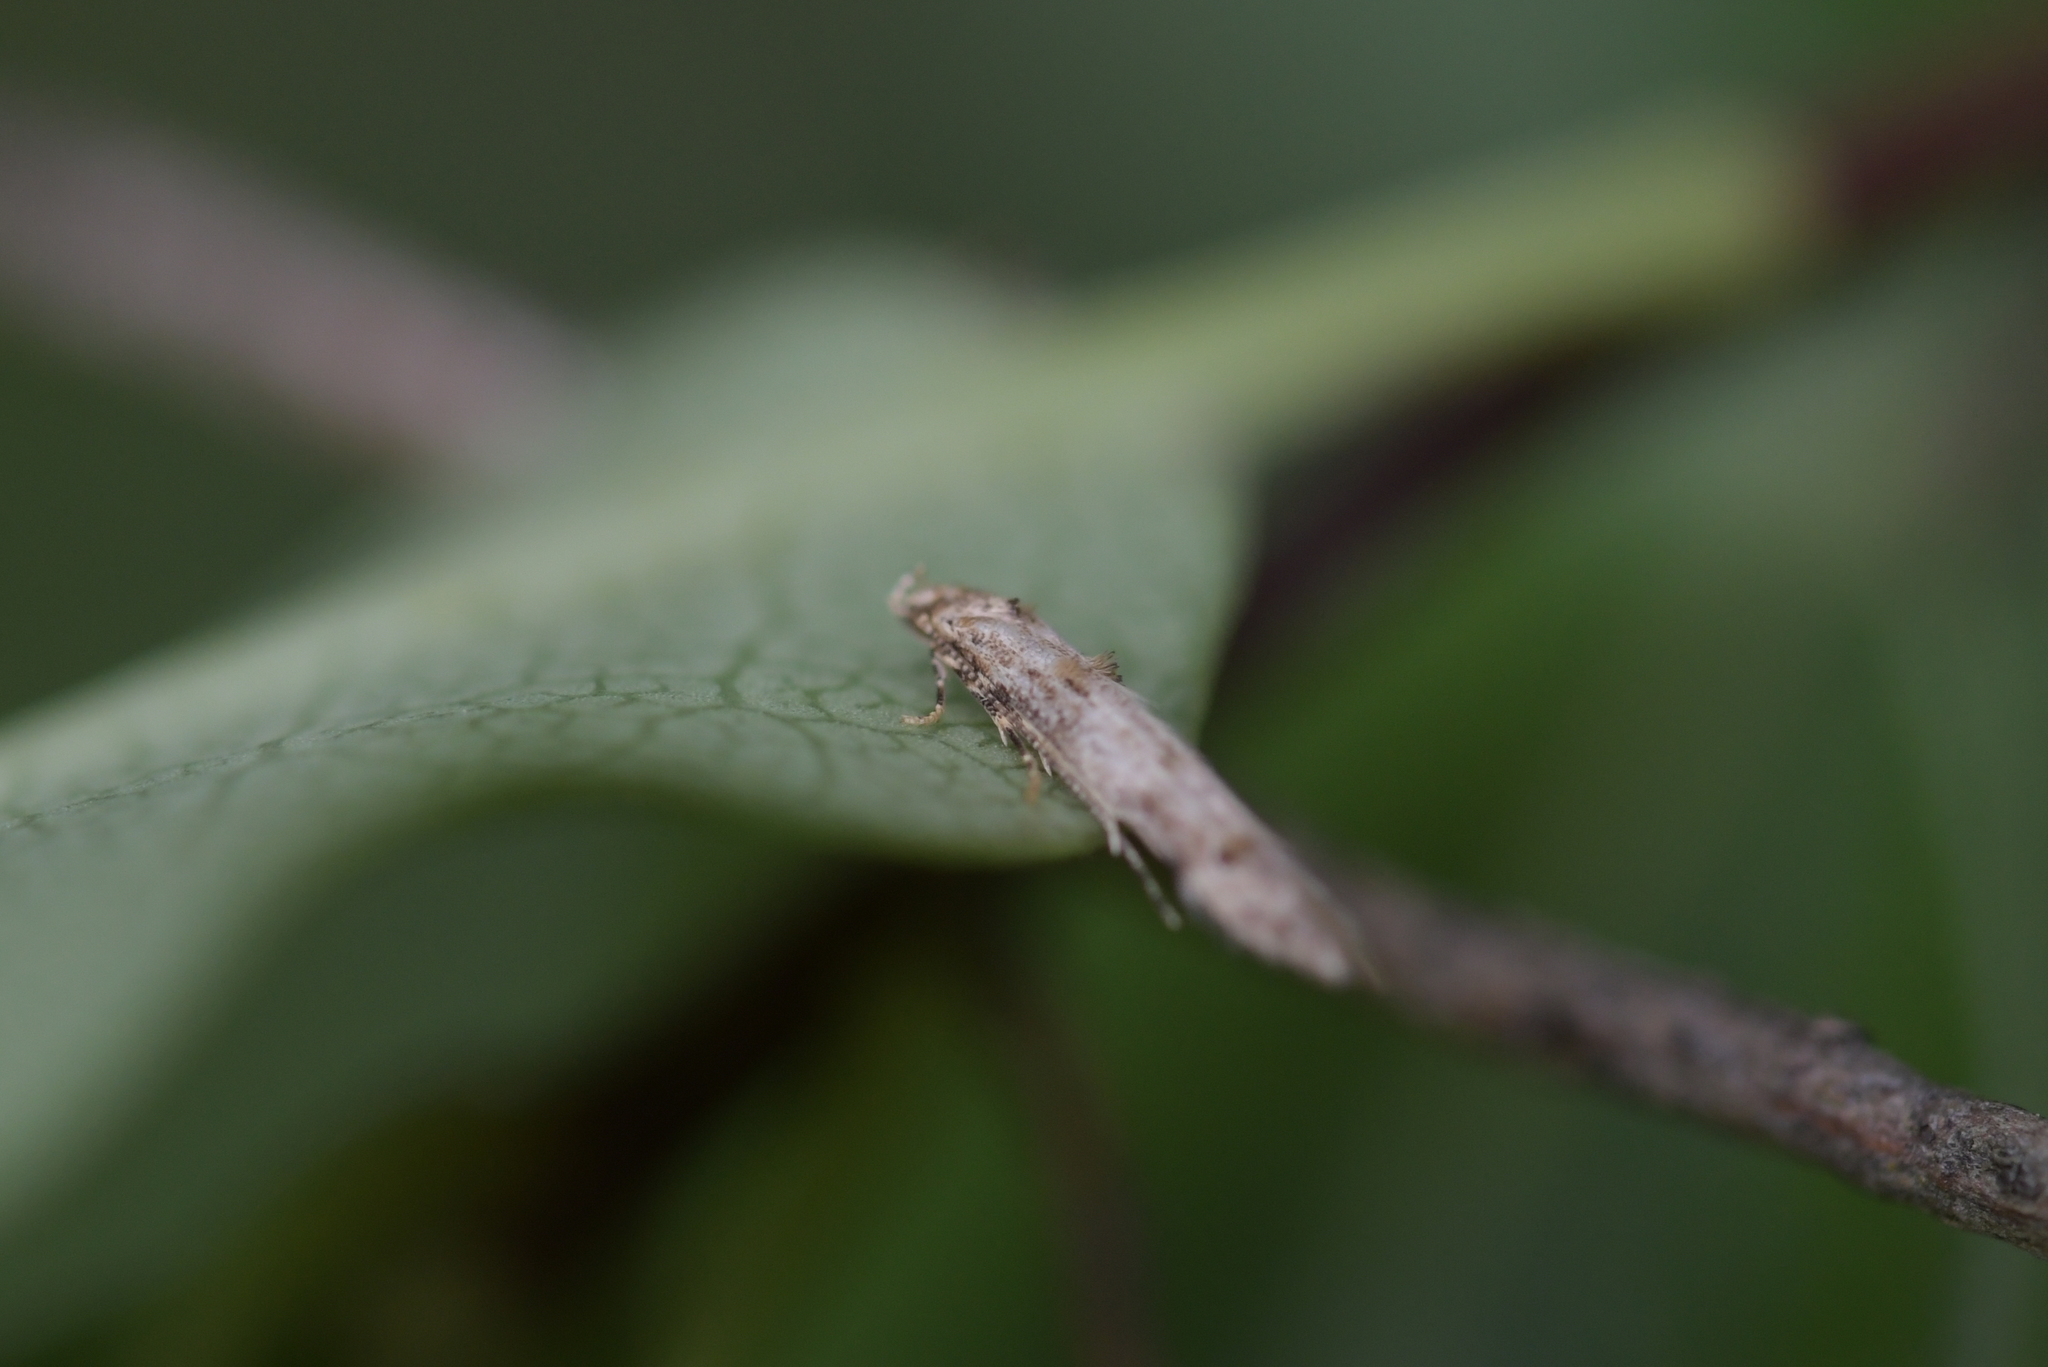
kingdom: Animalia
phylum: Arthropoda
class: Insecta
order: Lepidoptera
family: Elachistidae
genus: Microcolona
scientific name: Microcolona limodes
